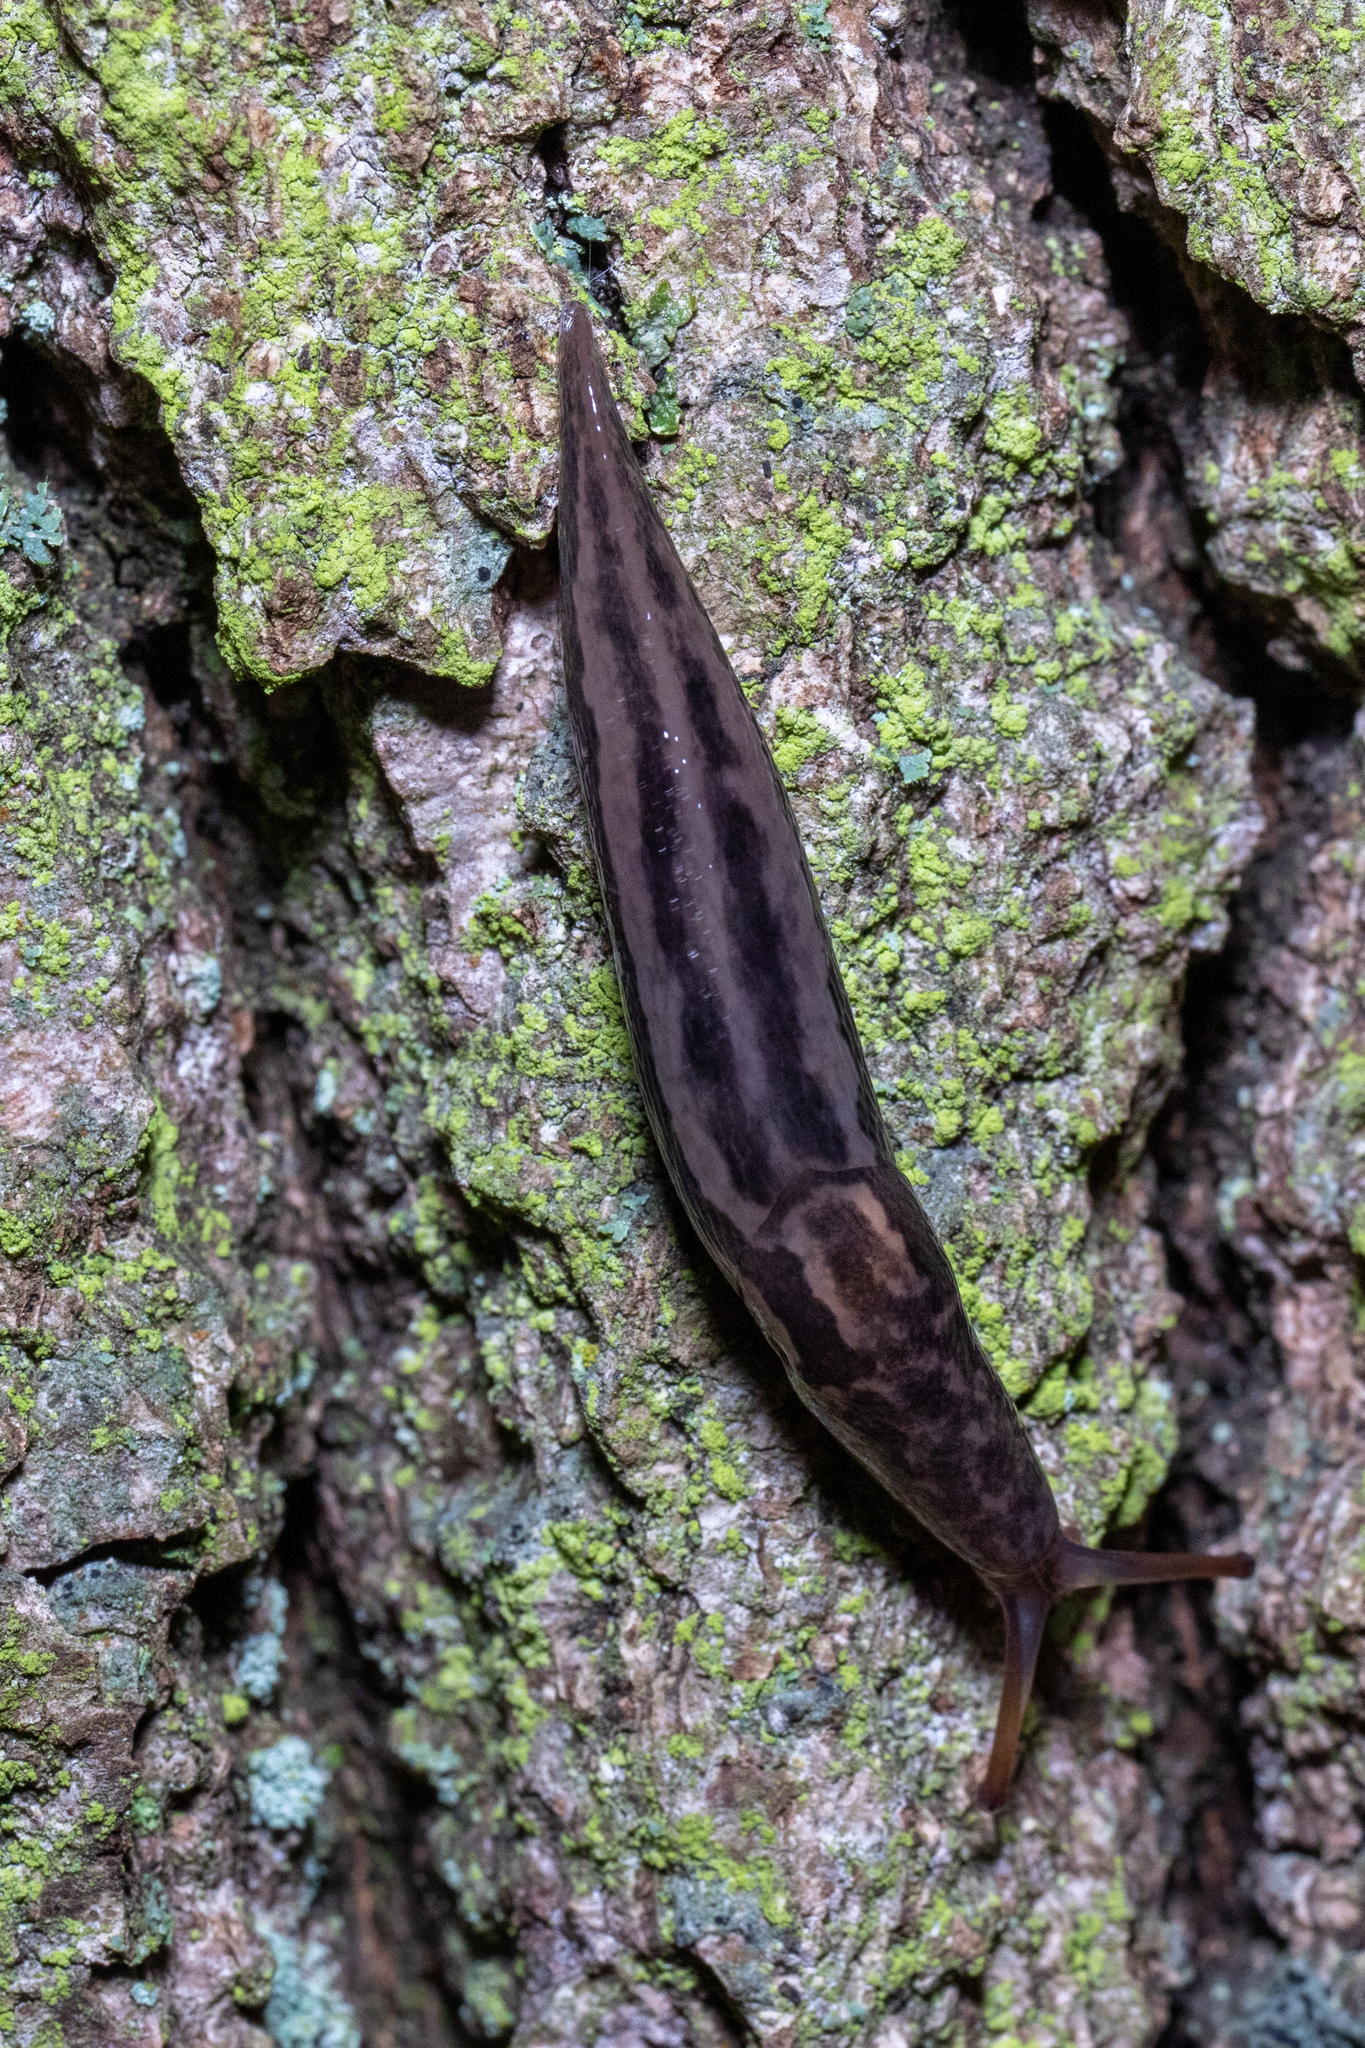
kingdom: Animalia
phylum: Mollusca
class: Gastropoda
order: Stylommatophora
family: Limacidae
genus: Limax
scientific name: Limax maximus
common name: Great grey slug
